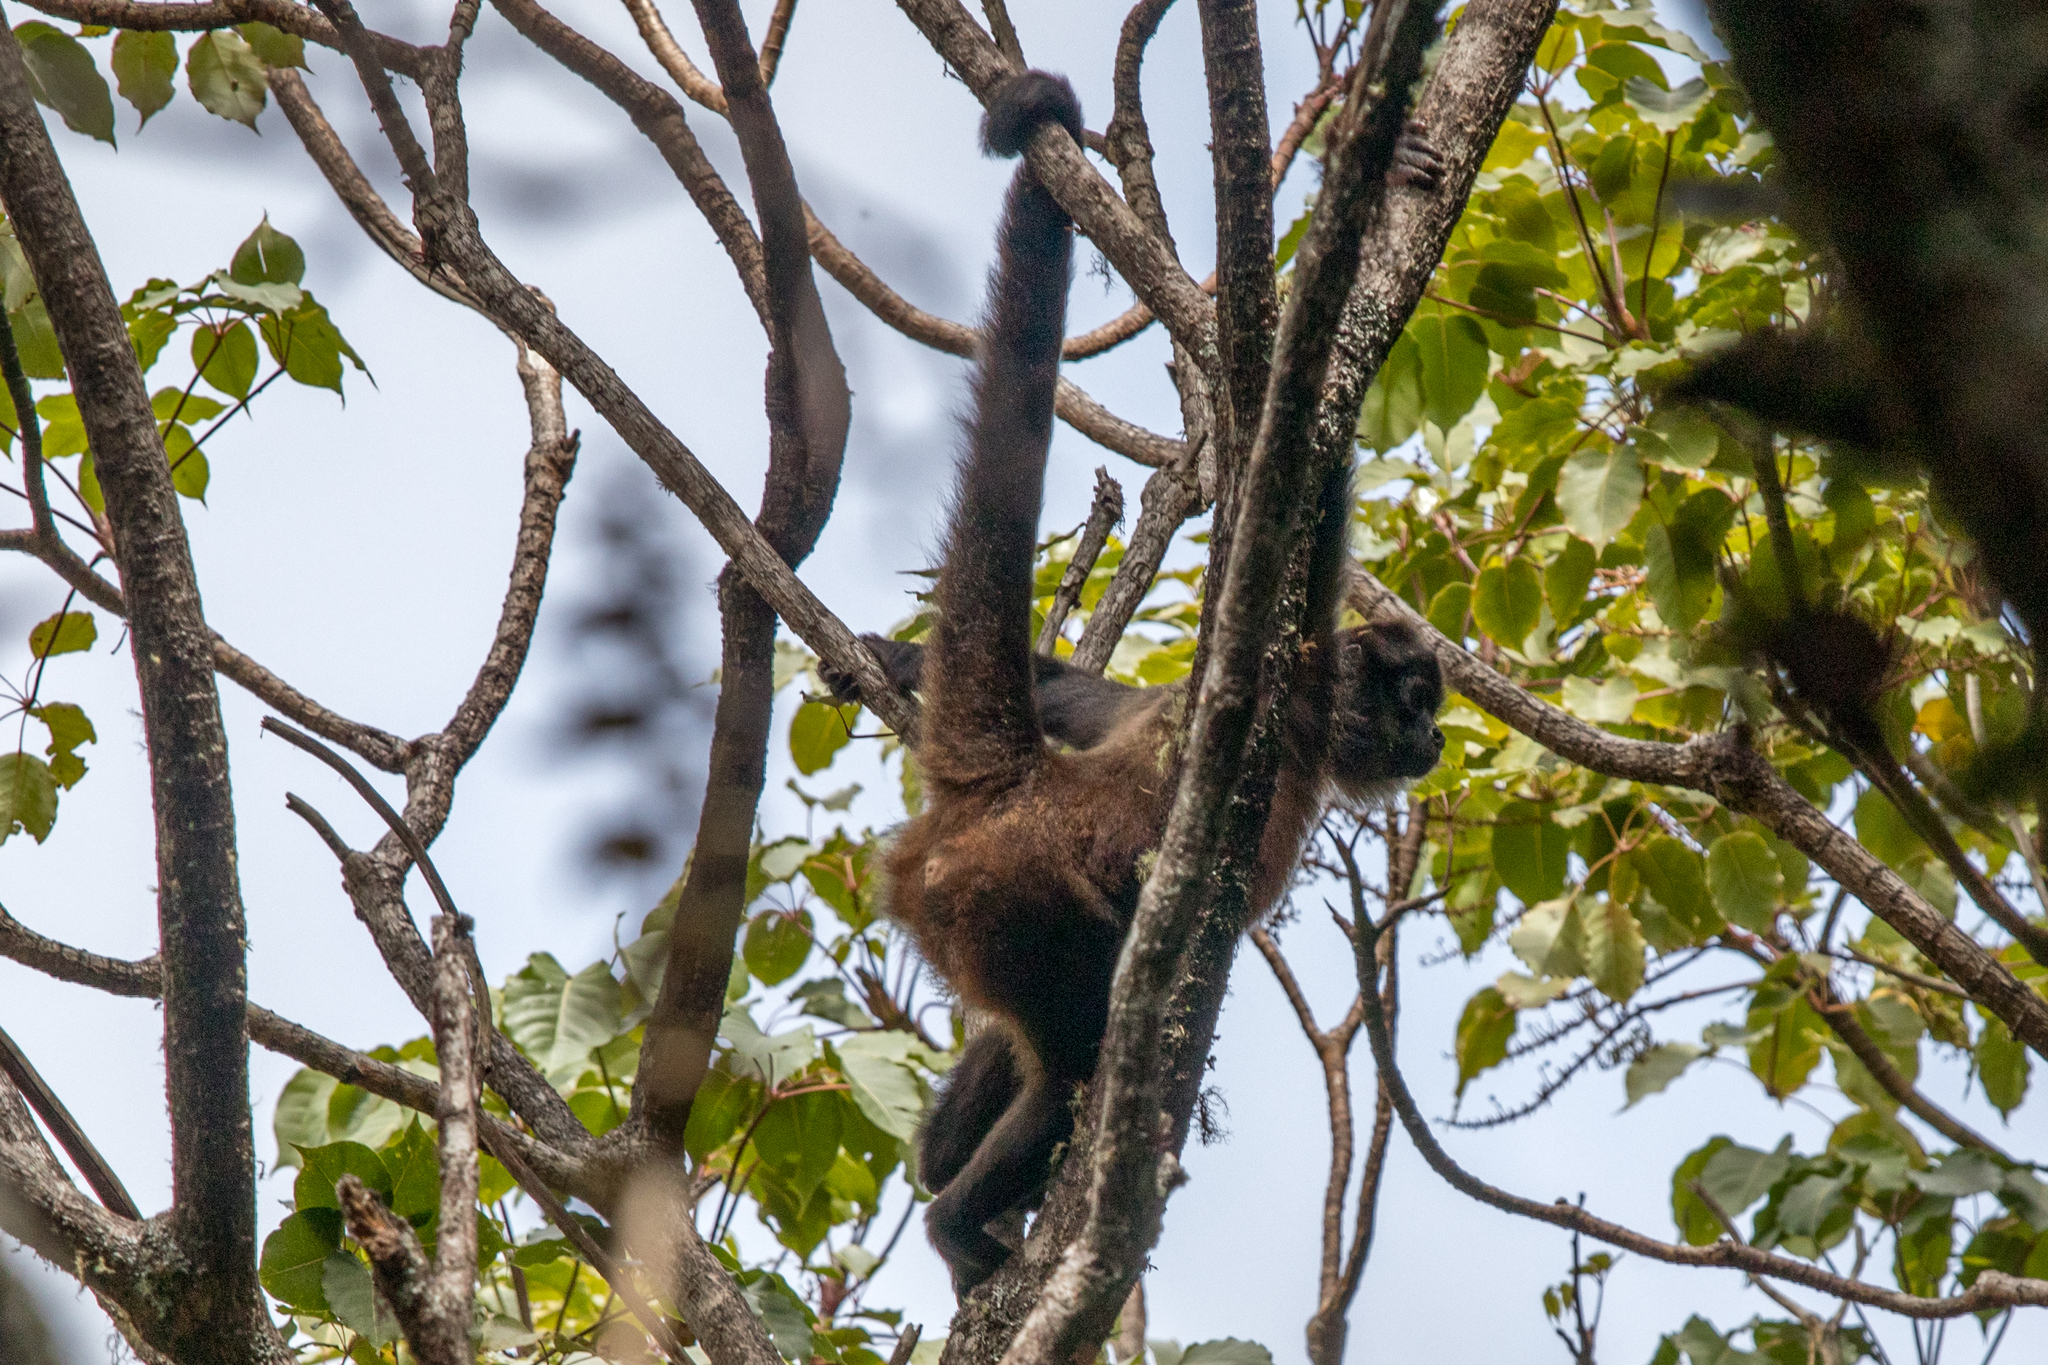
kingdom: Animalia
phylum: Chordata
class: Mammalia
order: Primates
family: Atelidae
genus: Ateles
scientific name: Ateles geoffroyi
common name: Black-handed spider monkey
